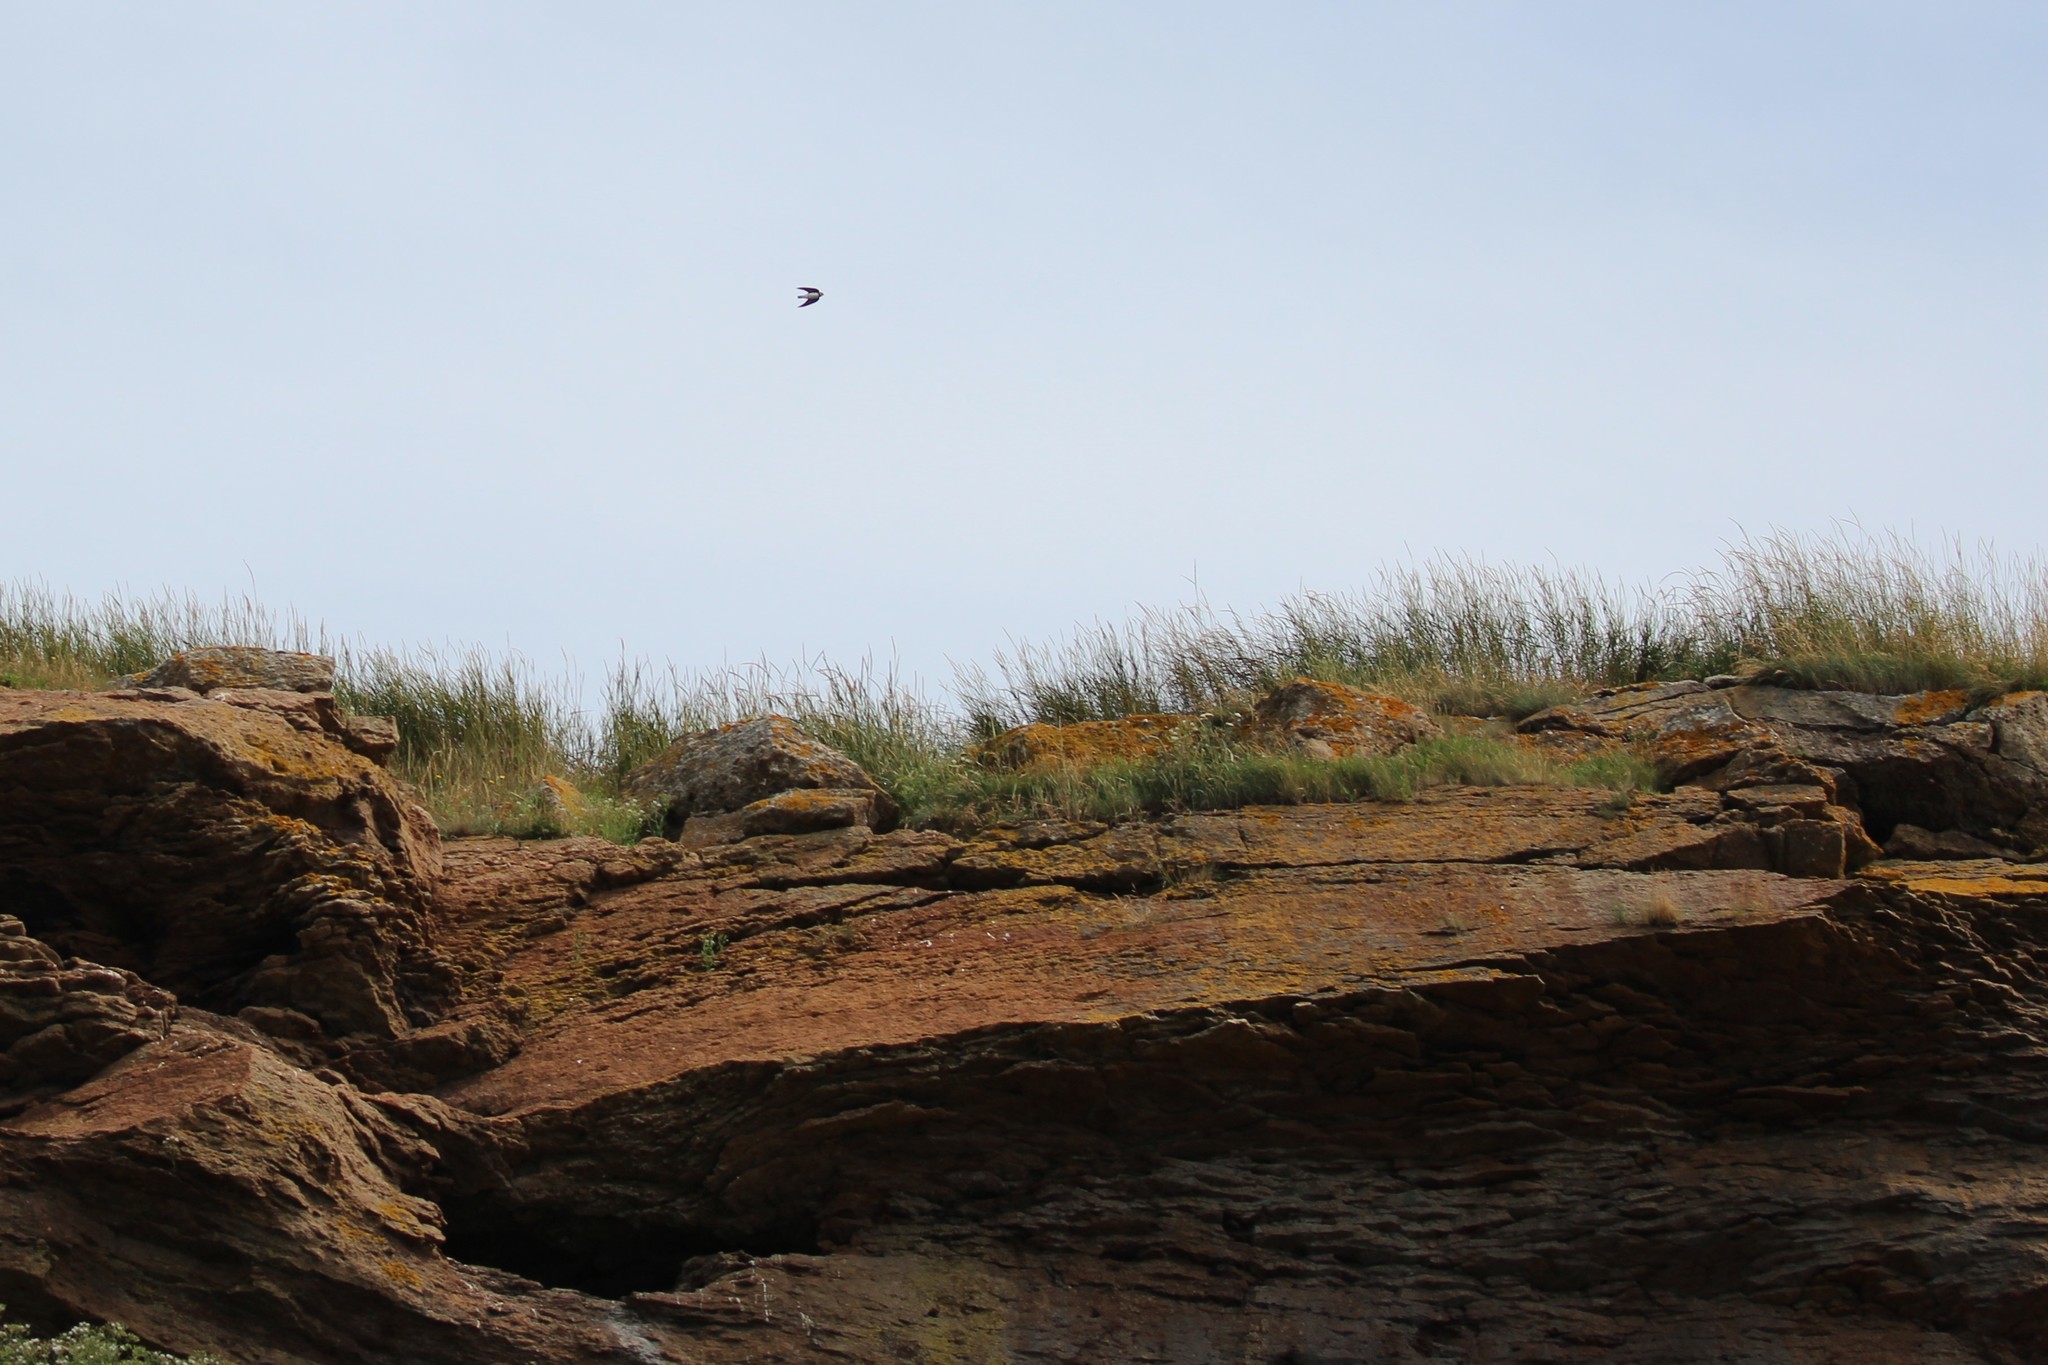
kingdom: Animalia
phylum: Chordata
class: Aves
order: Passeriformes
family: Hirundinidae
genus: Riparia
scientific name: Riparia riparia
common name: Sand martin
